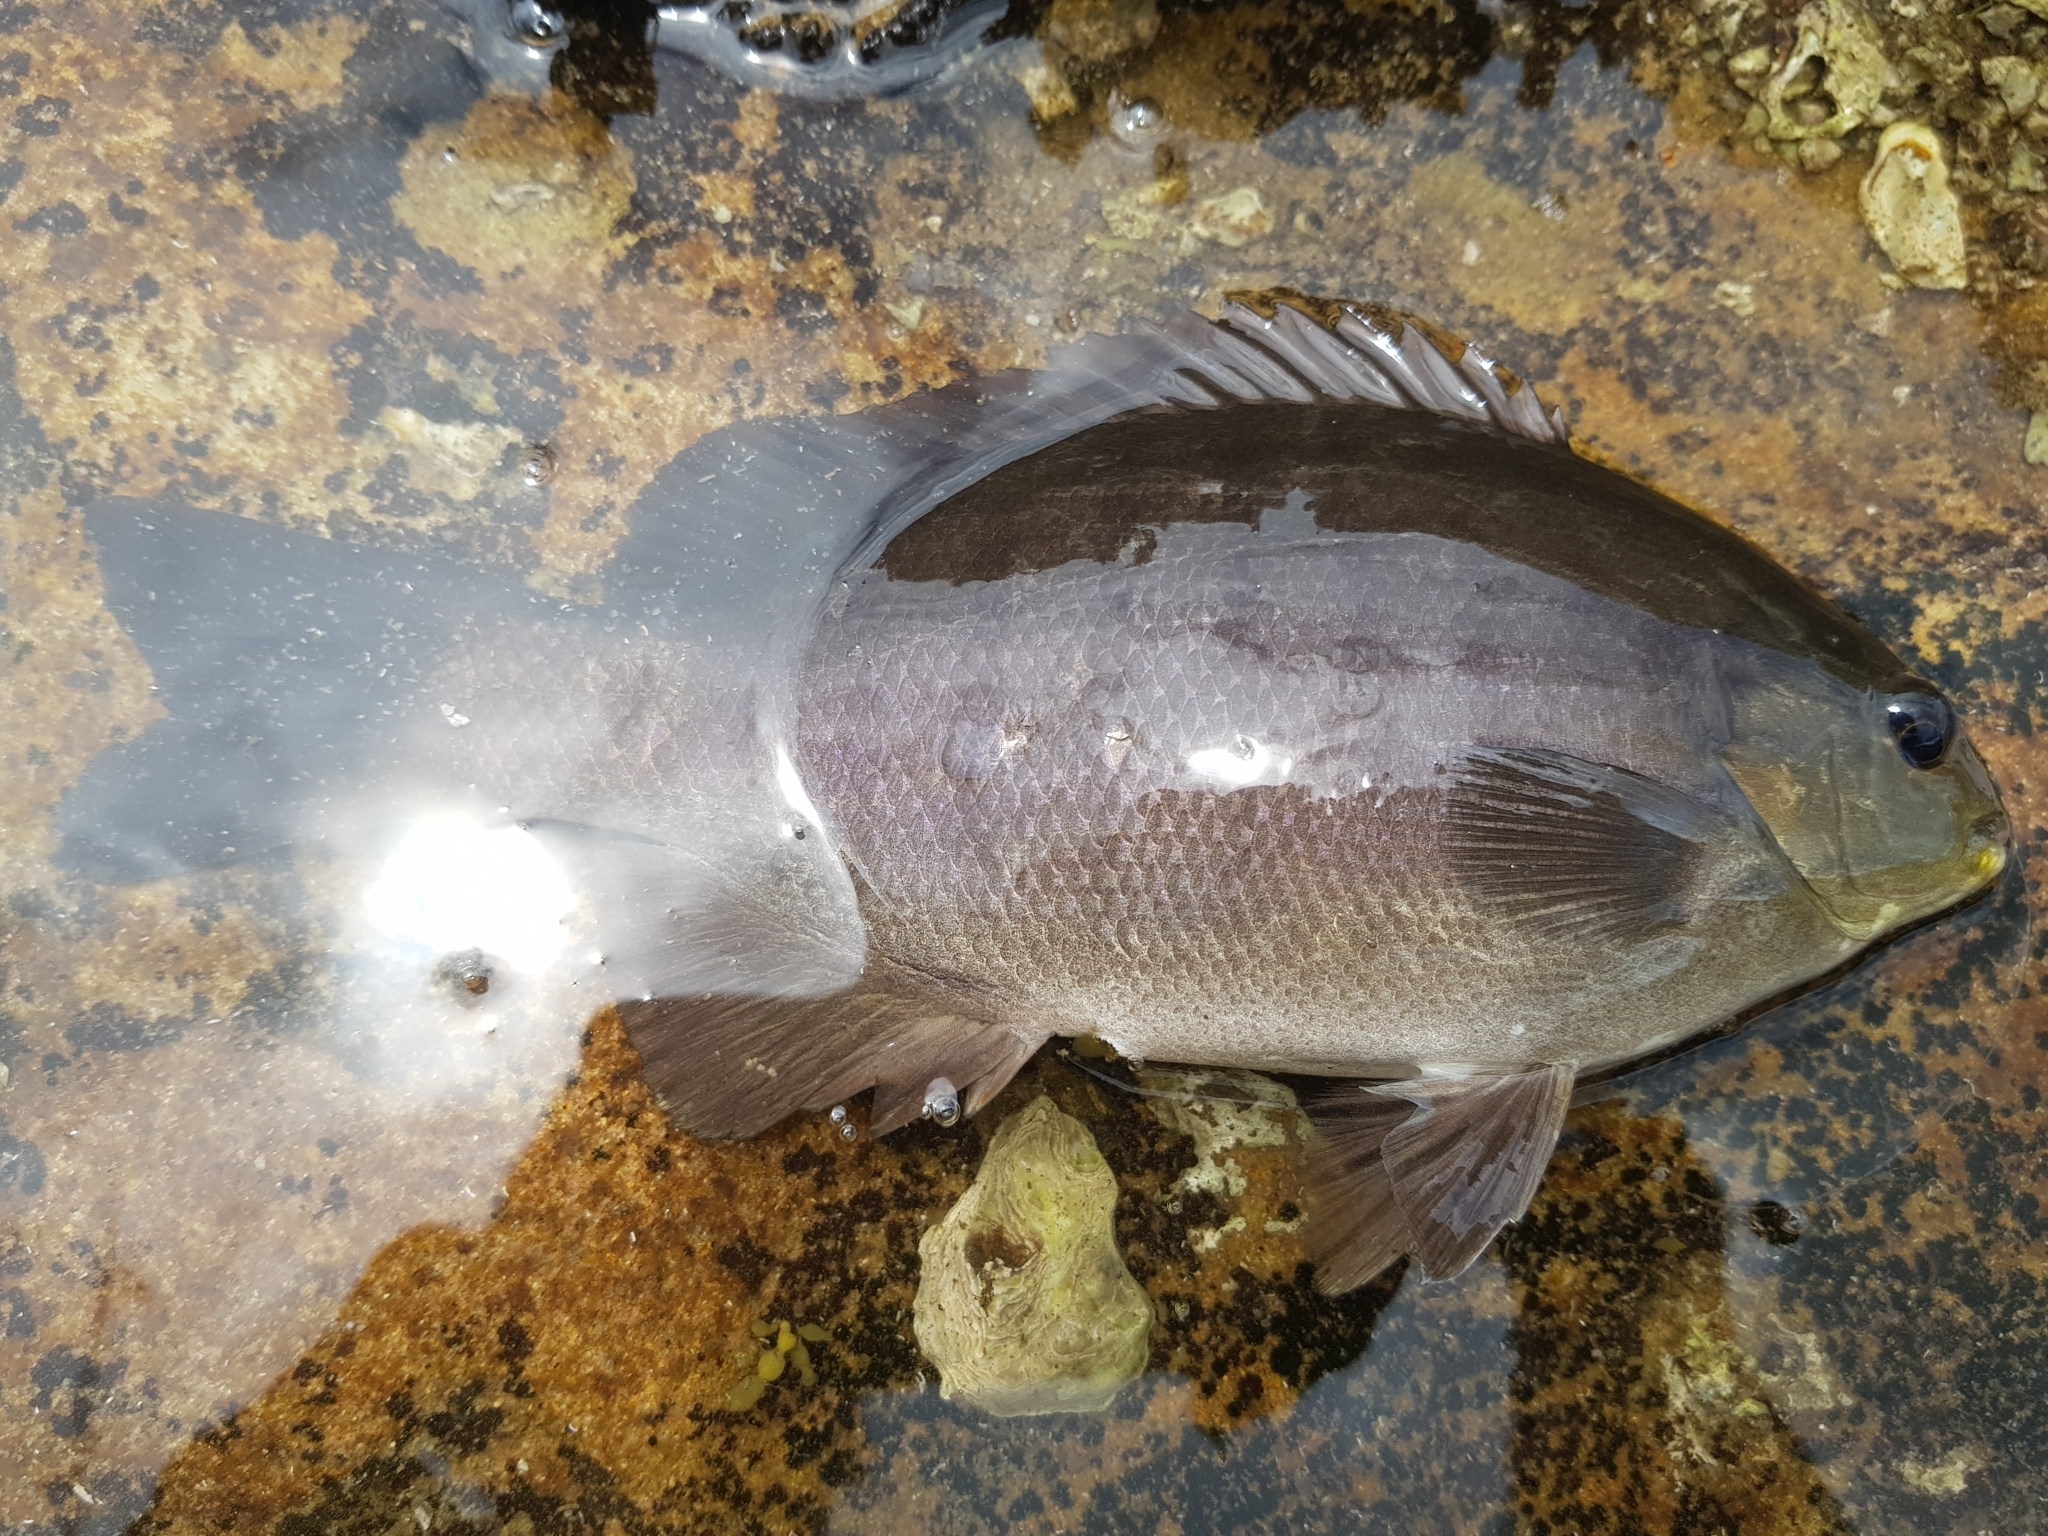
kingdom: Animalia
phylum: Chordata
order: Perciformes
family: Kyphosidae
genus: Girella
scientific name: Girella tricuspidata
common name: Parore
